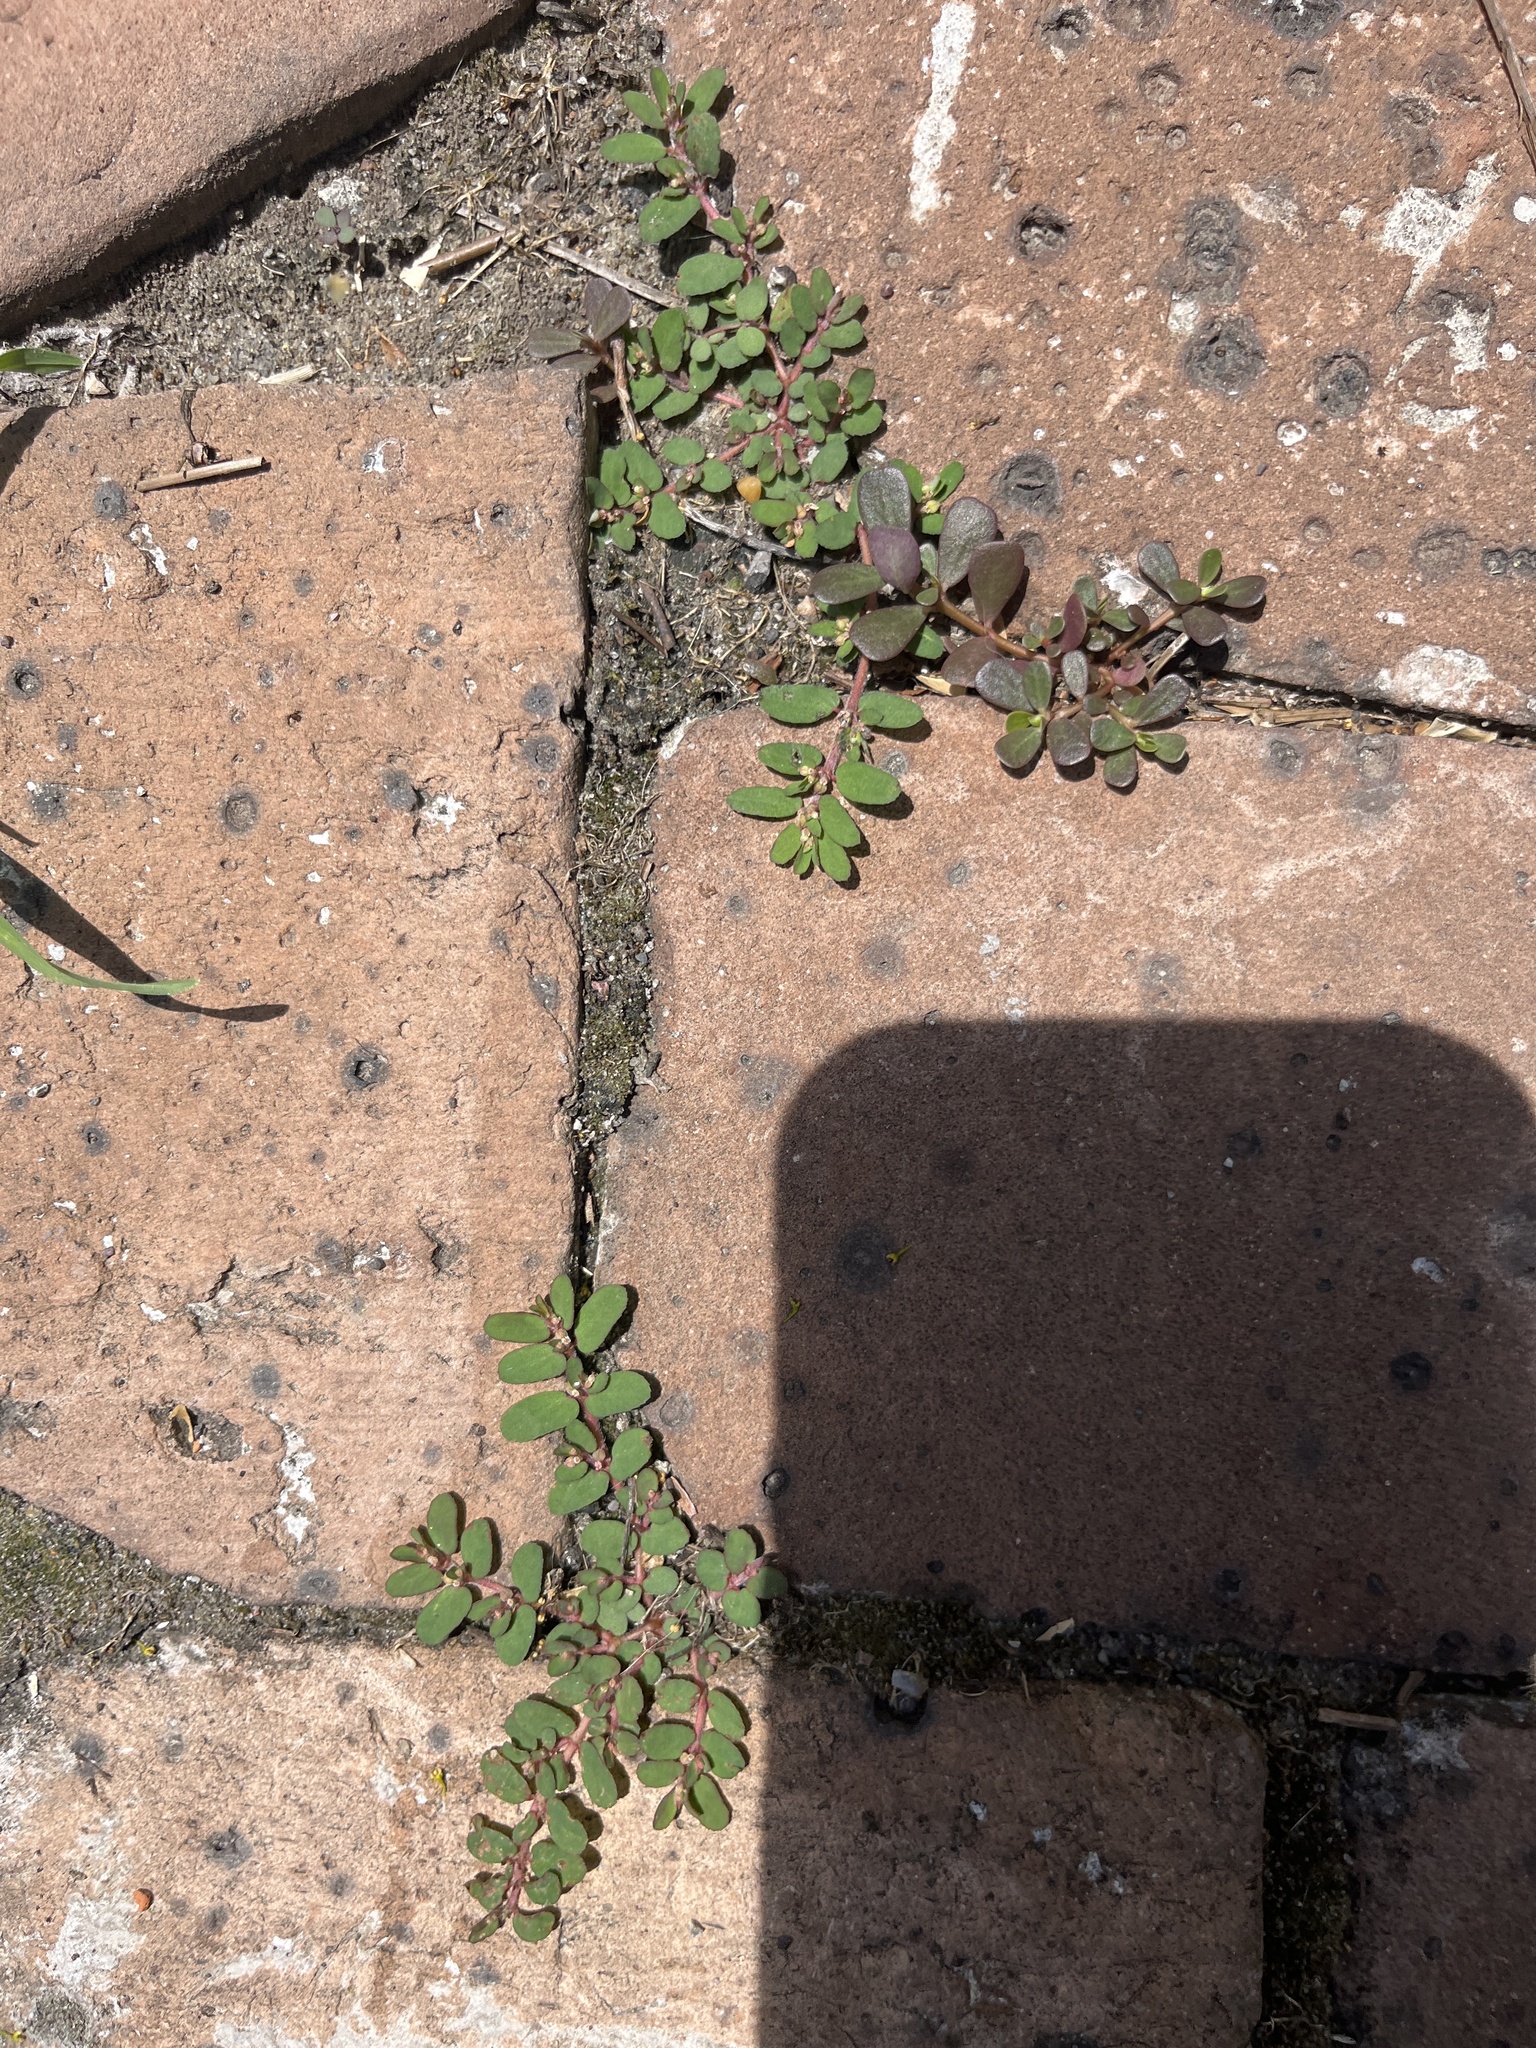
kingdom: Plantae
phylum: Tracheophyta
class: Magnoliopsida
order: Malpighiales
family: Euphorbiaceae
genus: Euphorbia
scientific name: Euphorbia maculata
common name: Spotted spurge
